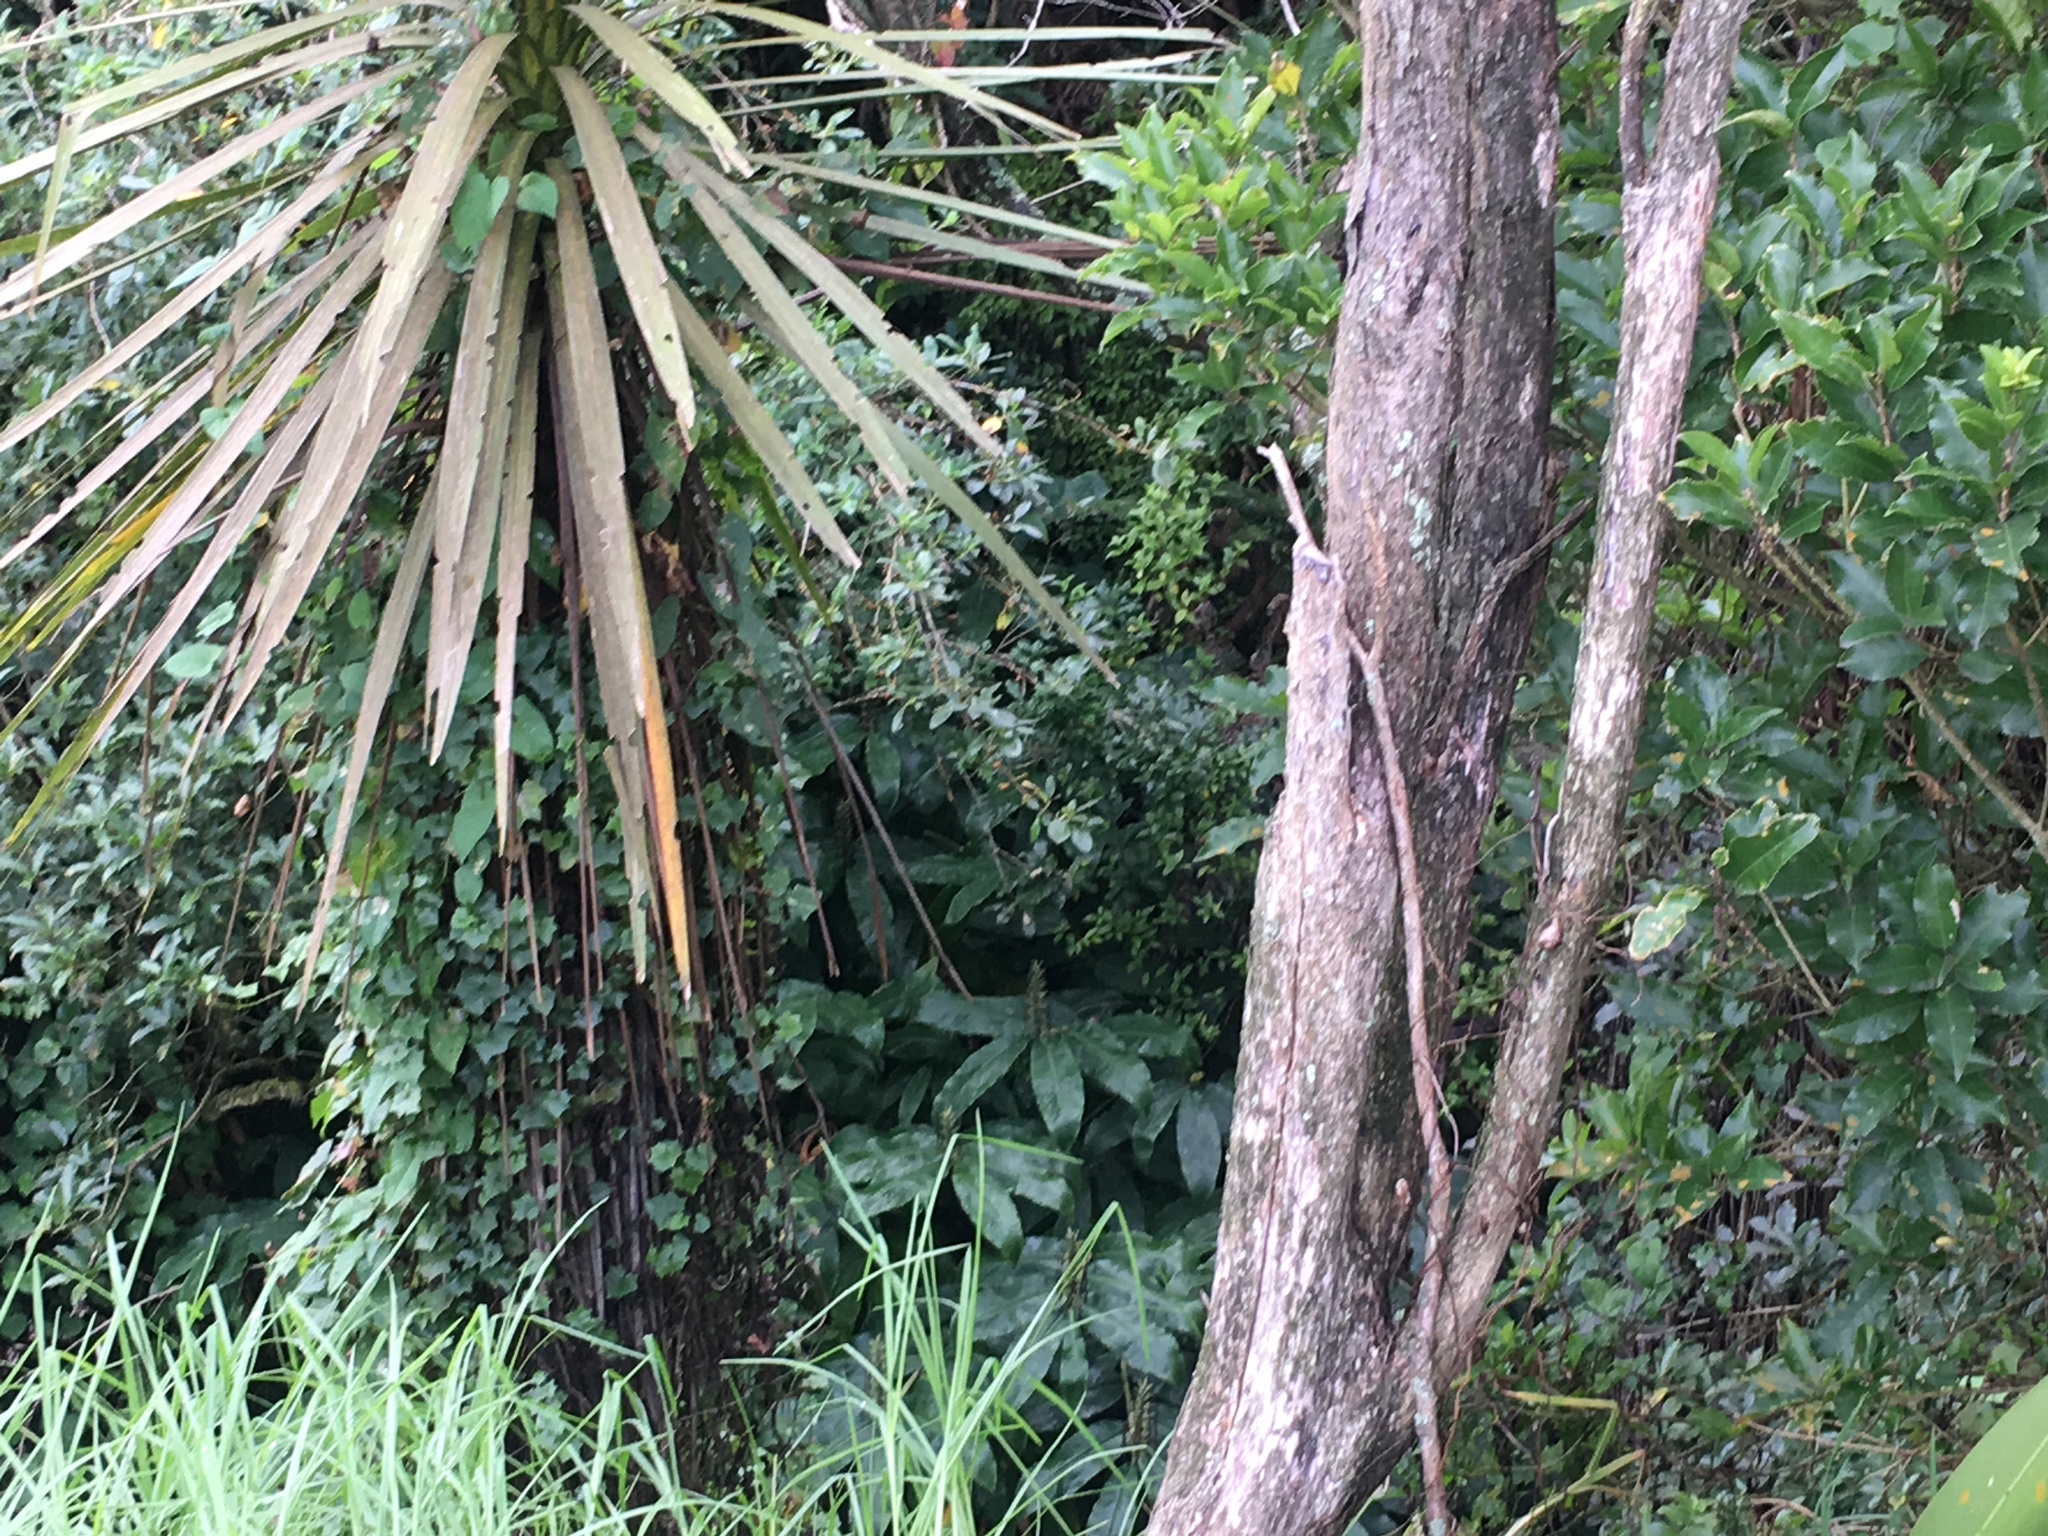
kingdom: Plantae
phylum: Tracheophyta
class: Liliopsida
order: Asparagales
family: Asparagaceae
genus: Cordyline
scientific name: Cordyline australis
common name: Cabbage-palm
